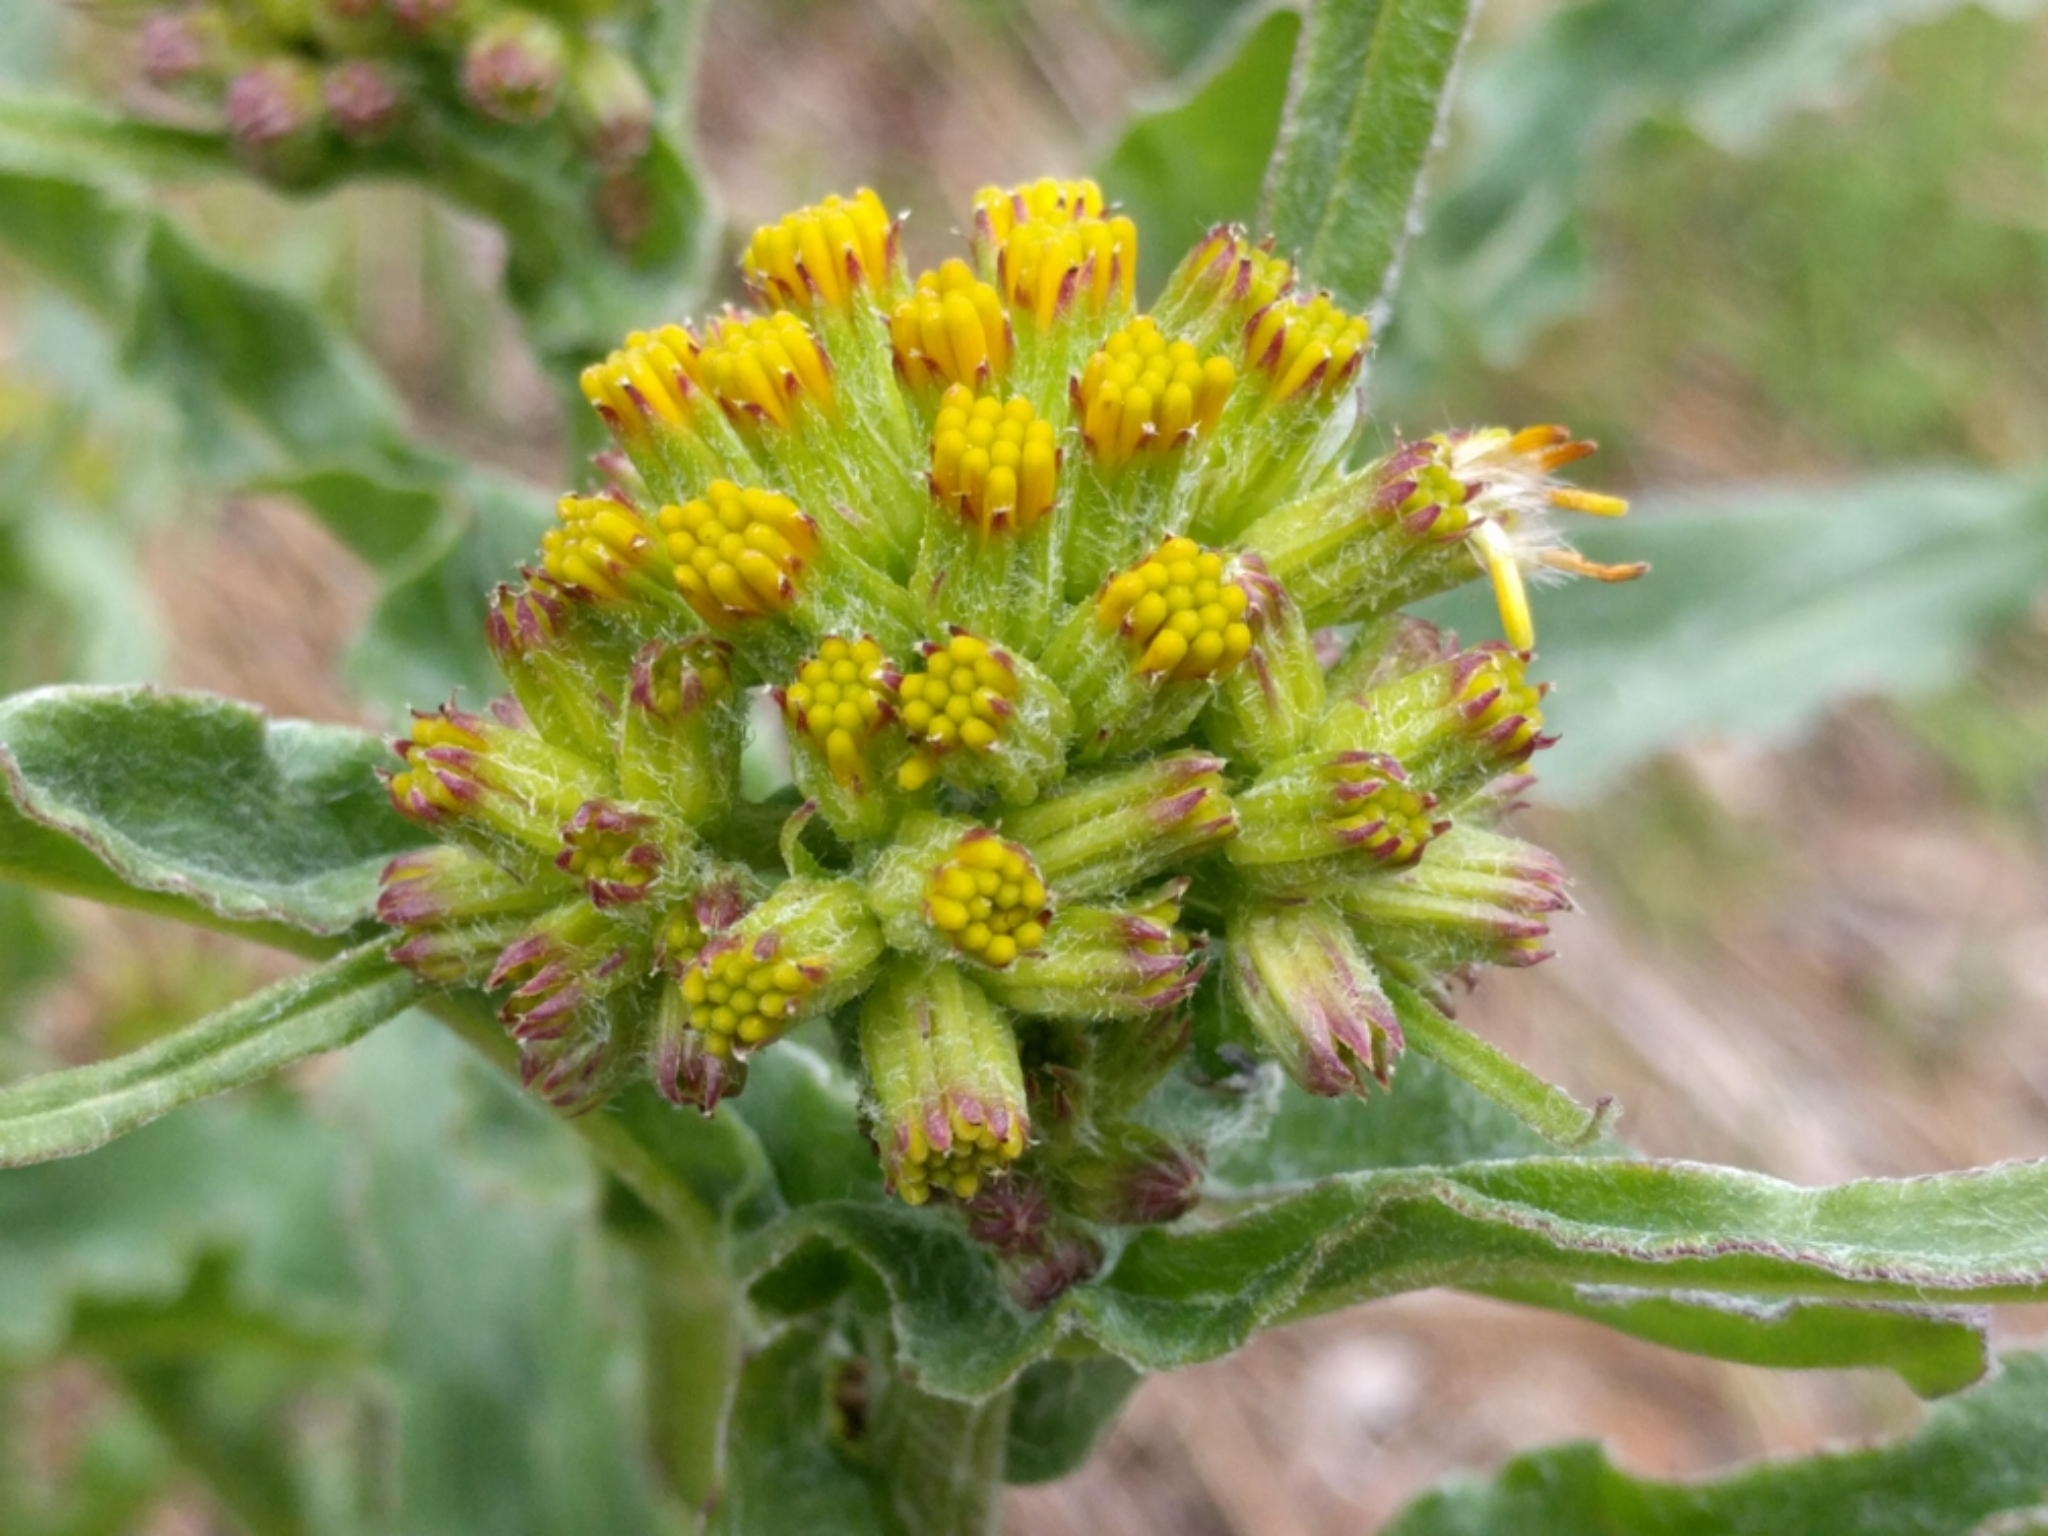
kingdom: Plantae
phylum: Tracheophyta
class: Magnoliopsida
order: Asterales
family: Asteraceae
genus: Senecio
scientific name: Senecio aronicoides
